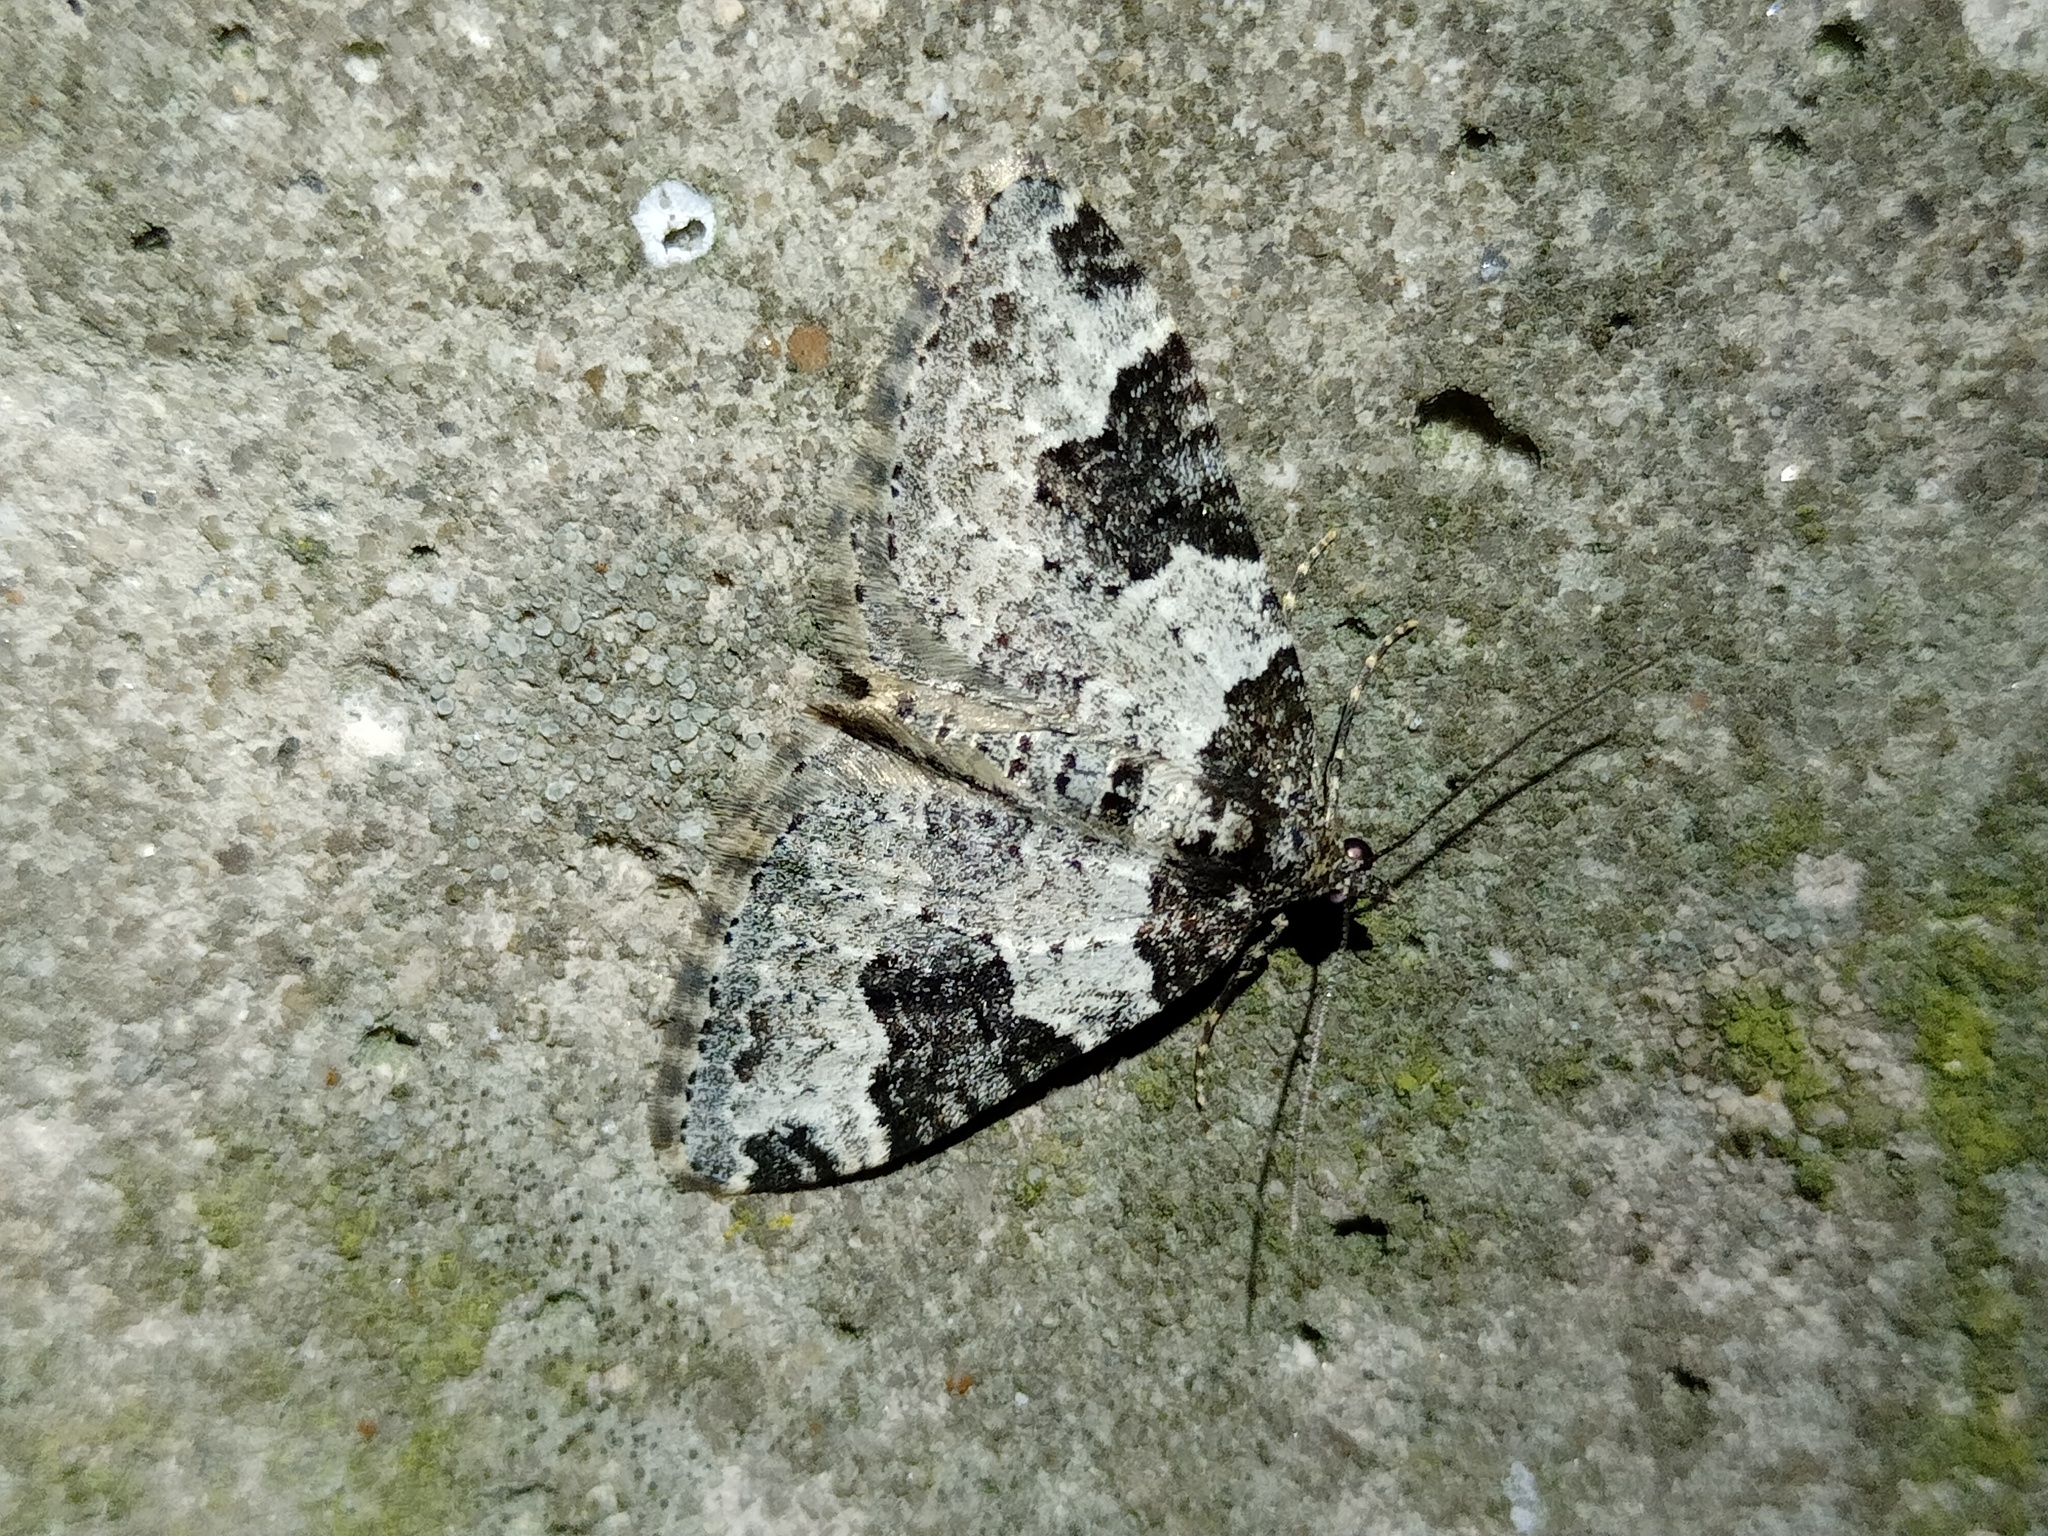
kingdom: Animalia
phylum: Arthropoda
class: Insecta
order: Lepidoptera
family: Geometridae
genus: Xanthorhoe
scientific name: Xanthorhoe fluctuata
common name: Garden carpet
